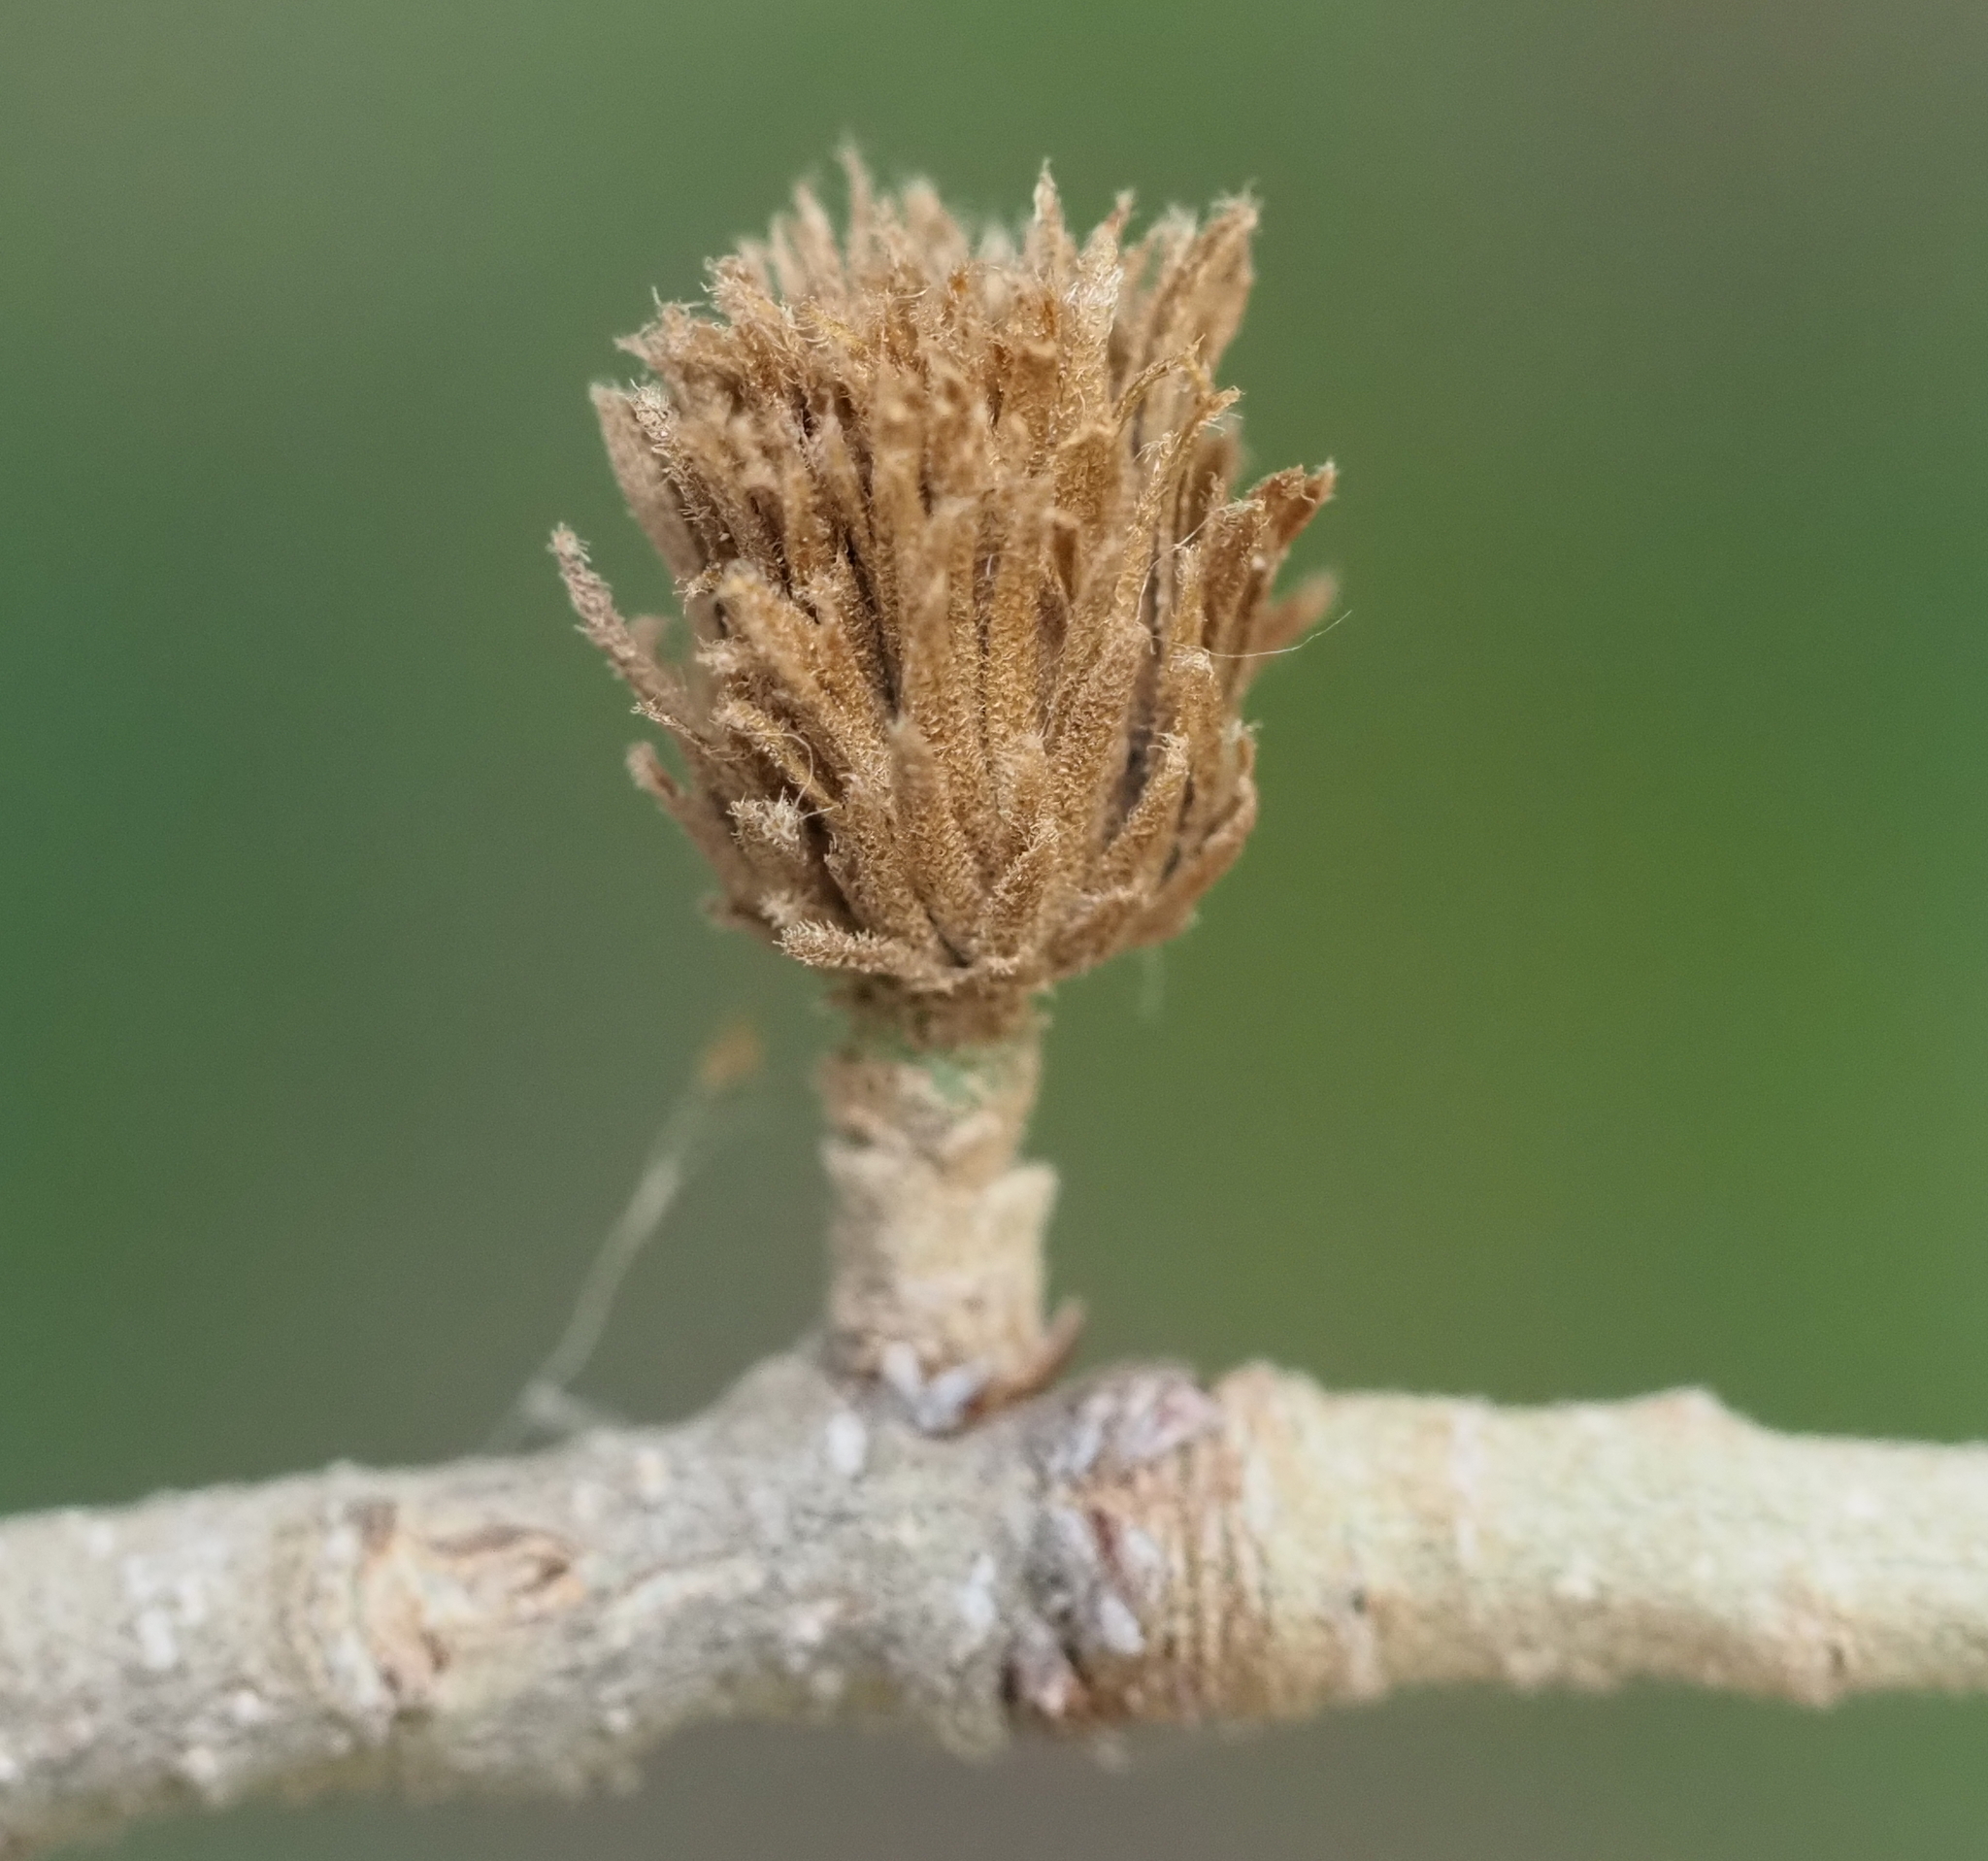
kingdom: Animalia
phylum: Arthropoda
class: Insecta
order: Hymenoptera
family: Cynipidae
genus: Andricus
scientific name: Andricus quercusfoliatus
